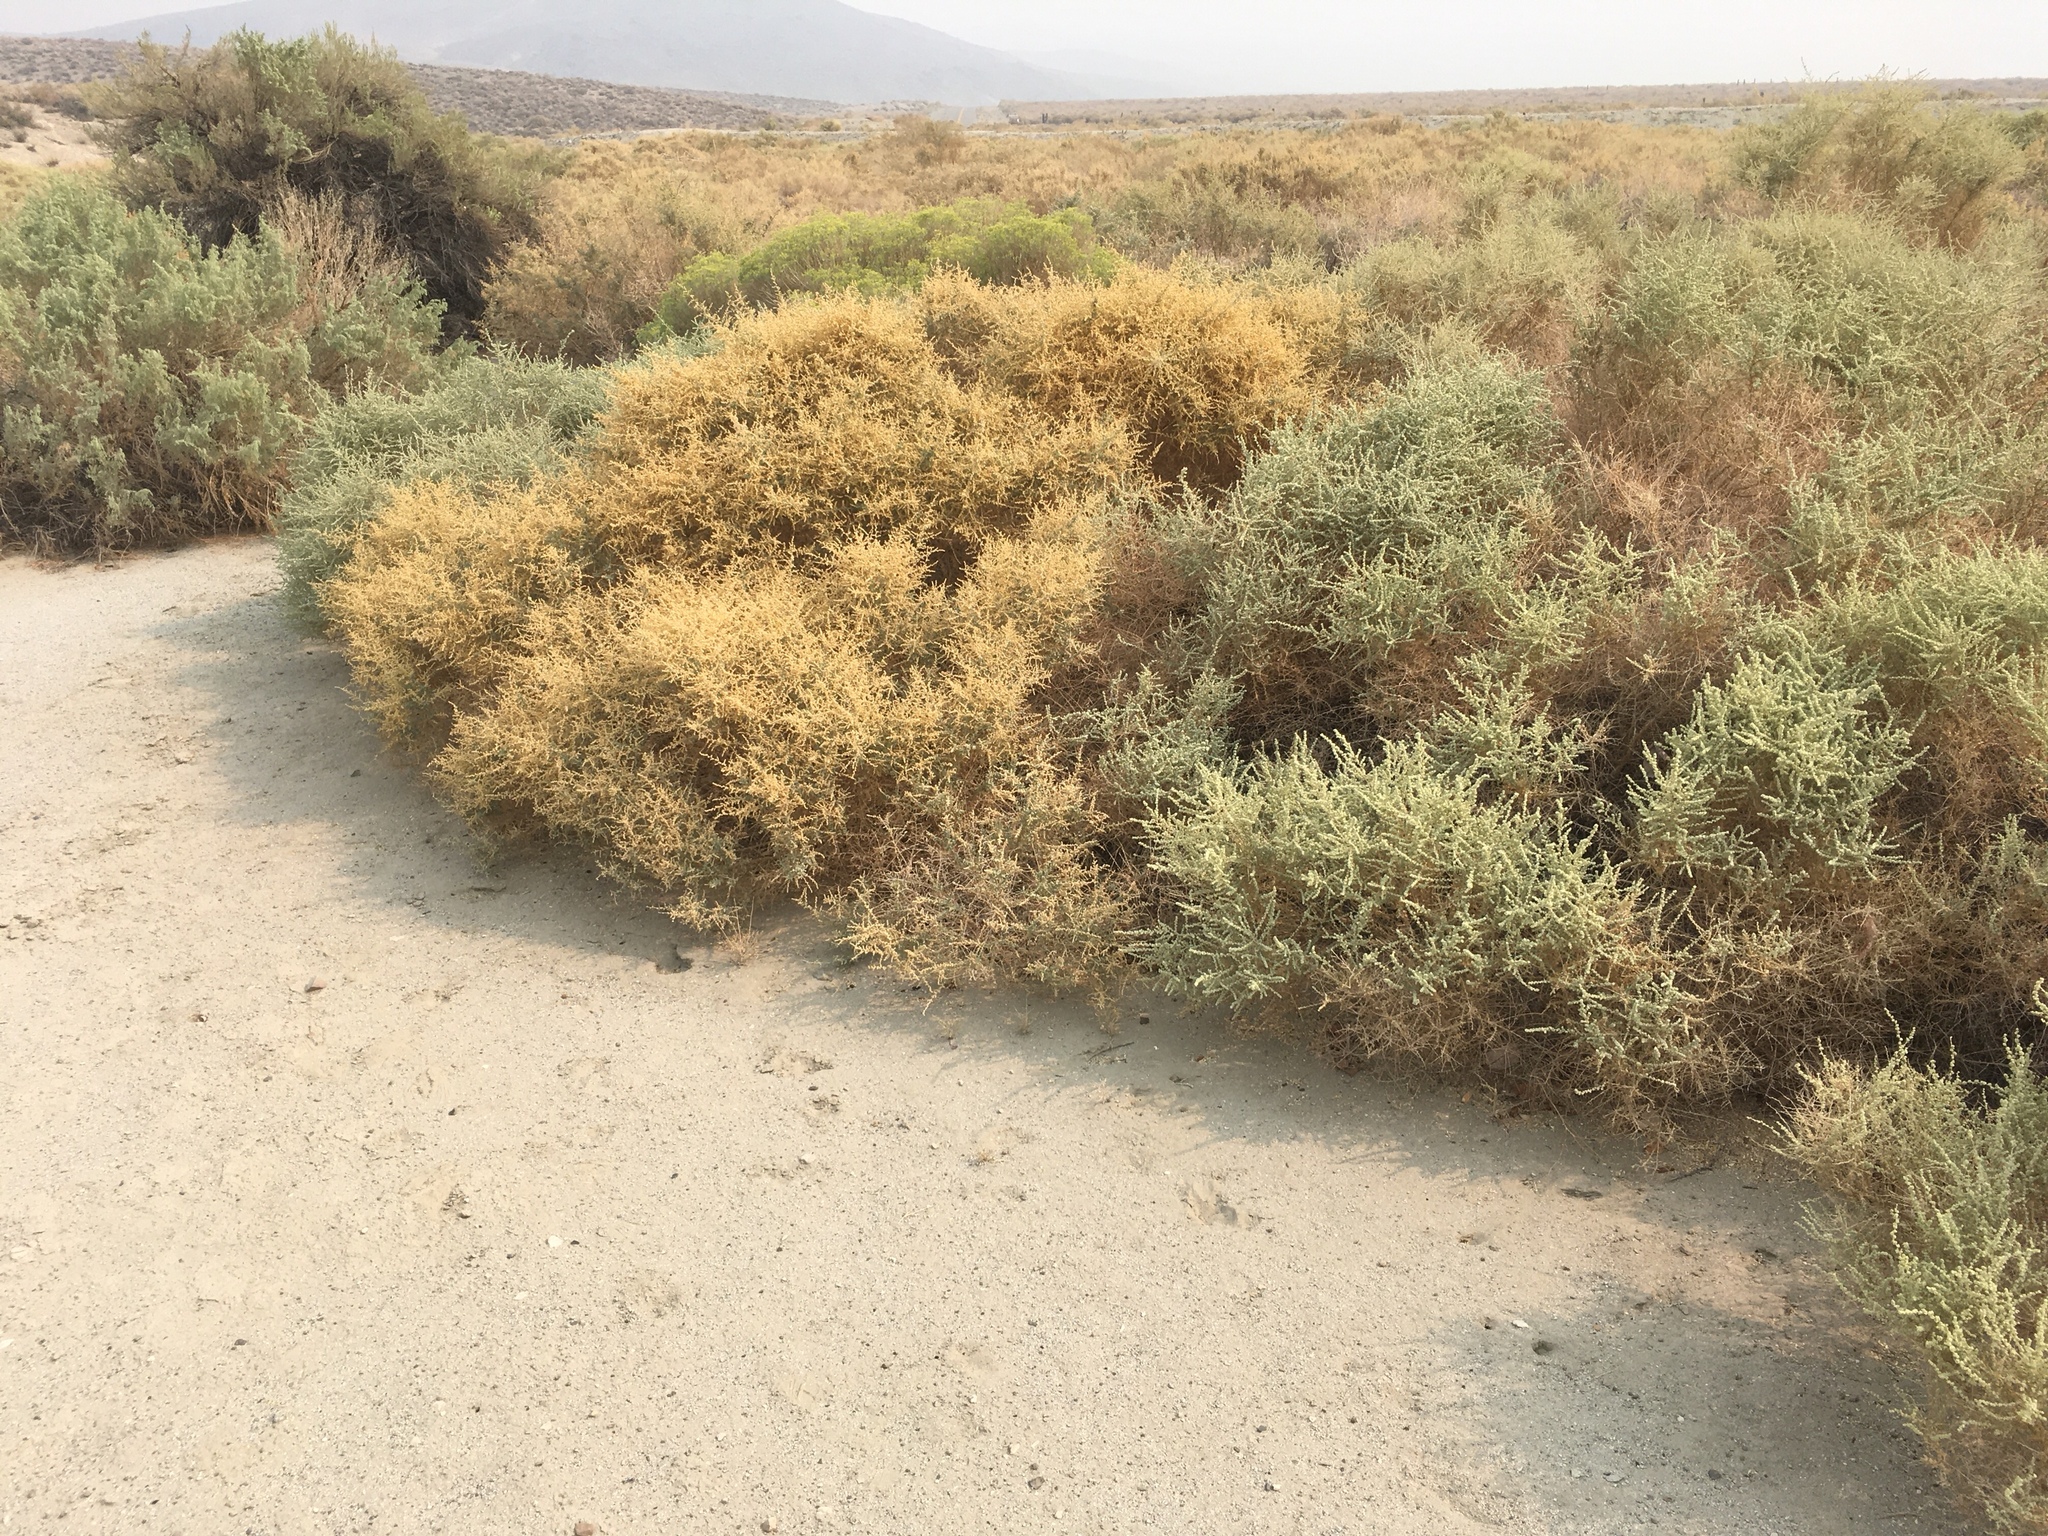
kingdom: Plantae
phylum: Tracheophyta
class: Magnoliopsida
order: Caryophyllales
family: Amaranthaceae
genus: Atriplex
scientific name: Atriplex polycarpa
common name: Desert saltbush
